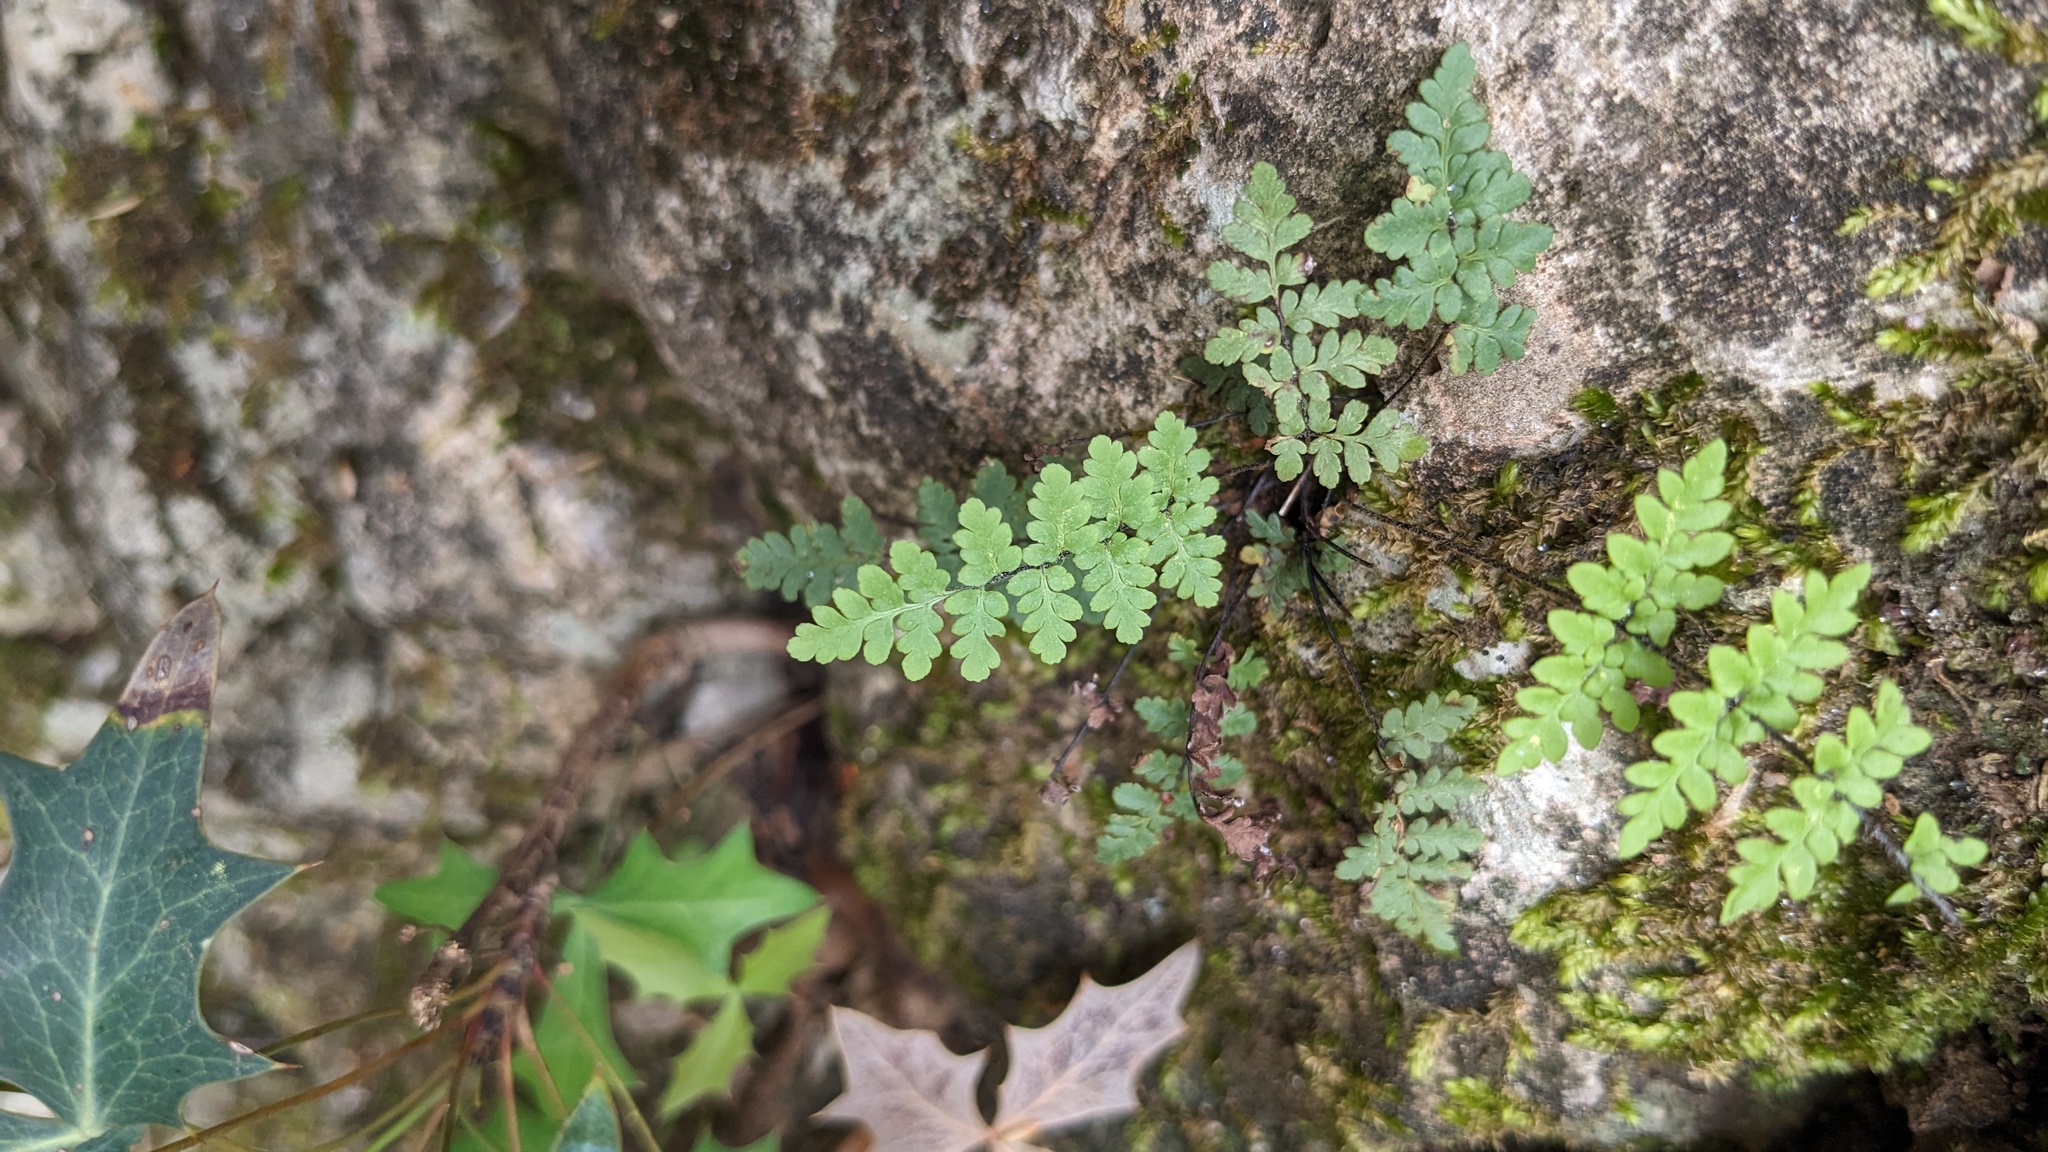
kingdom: Plantae
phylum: Tracheophyta
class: Polypodiopsida
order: Polypodiales
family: Pteridaceae
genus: Myriopteris
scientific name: Myriopteris alabamensis
